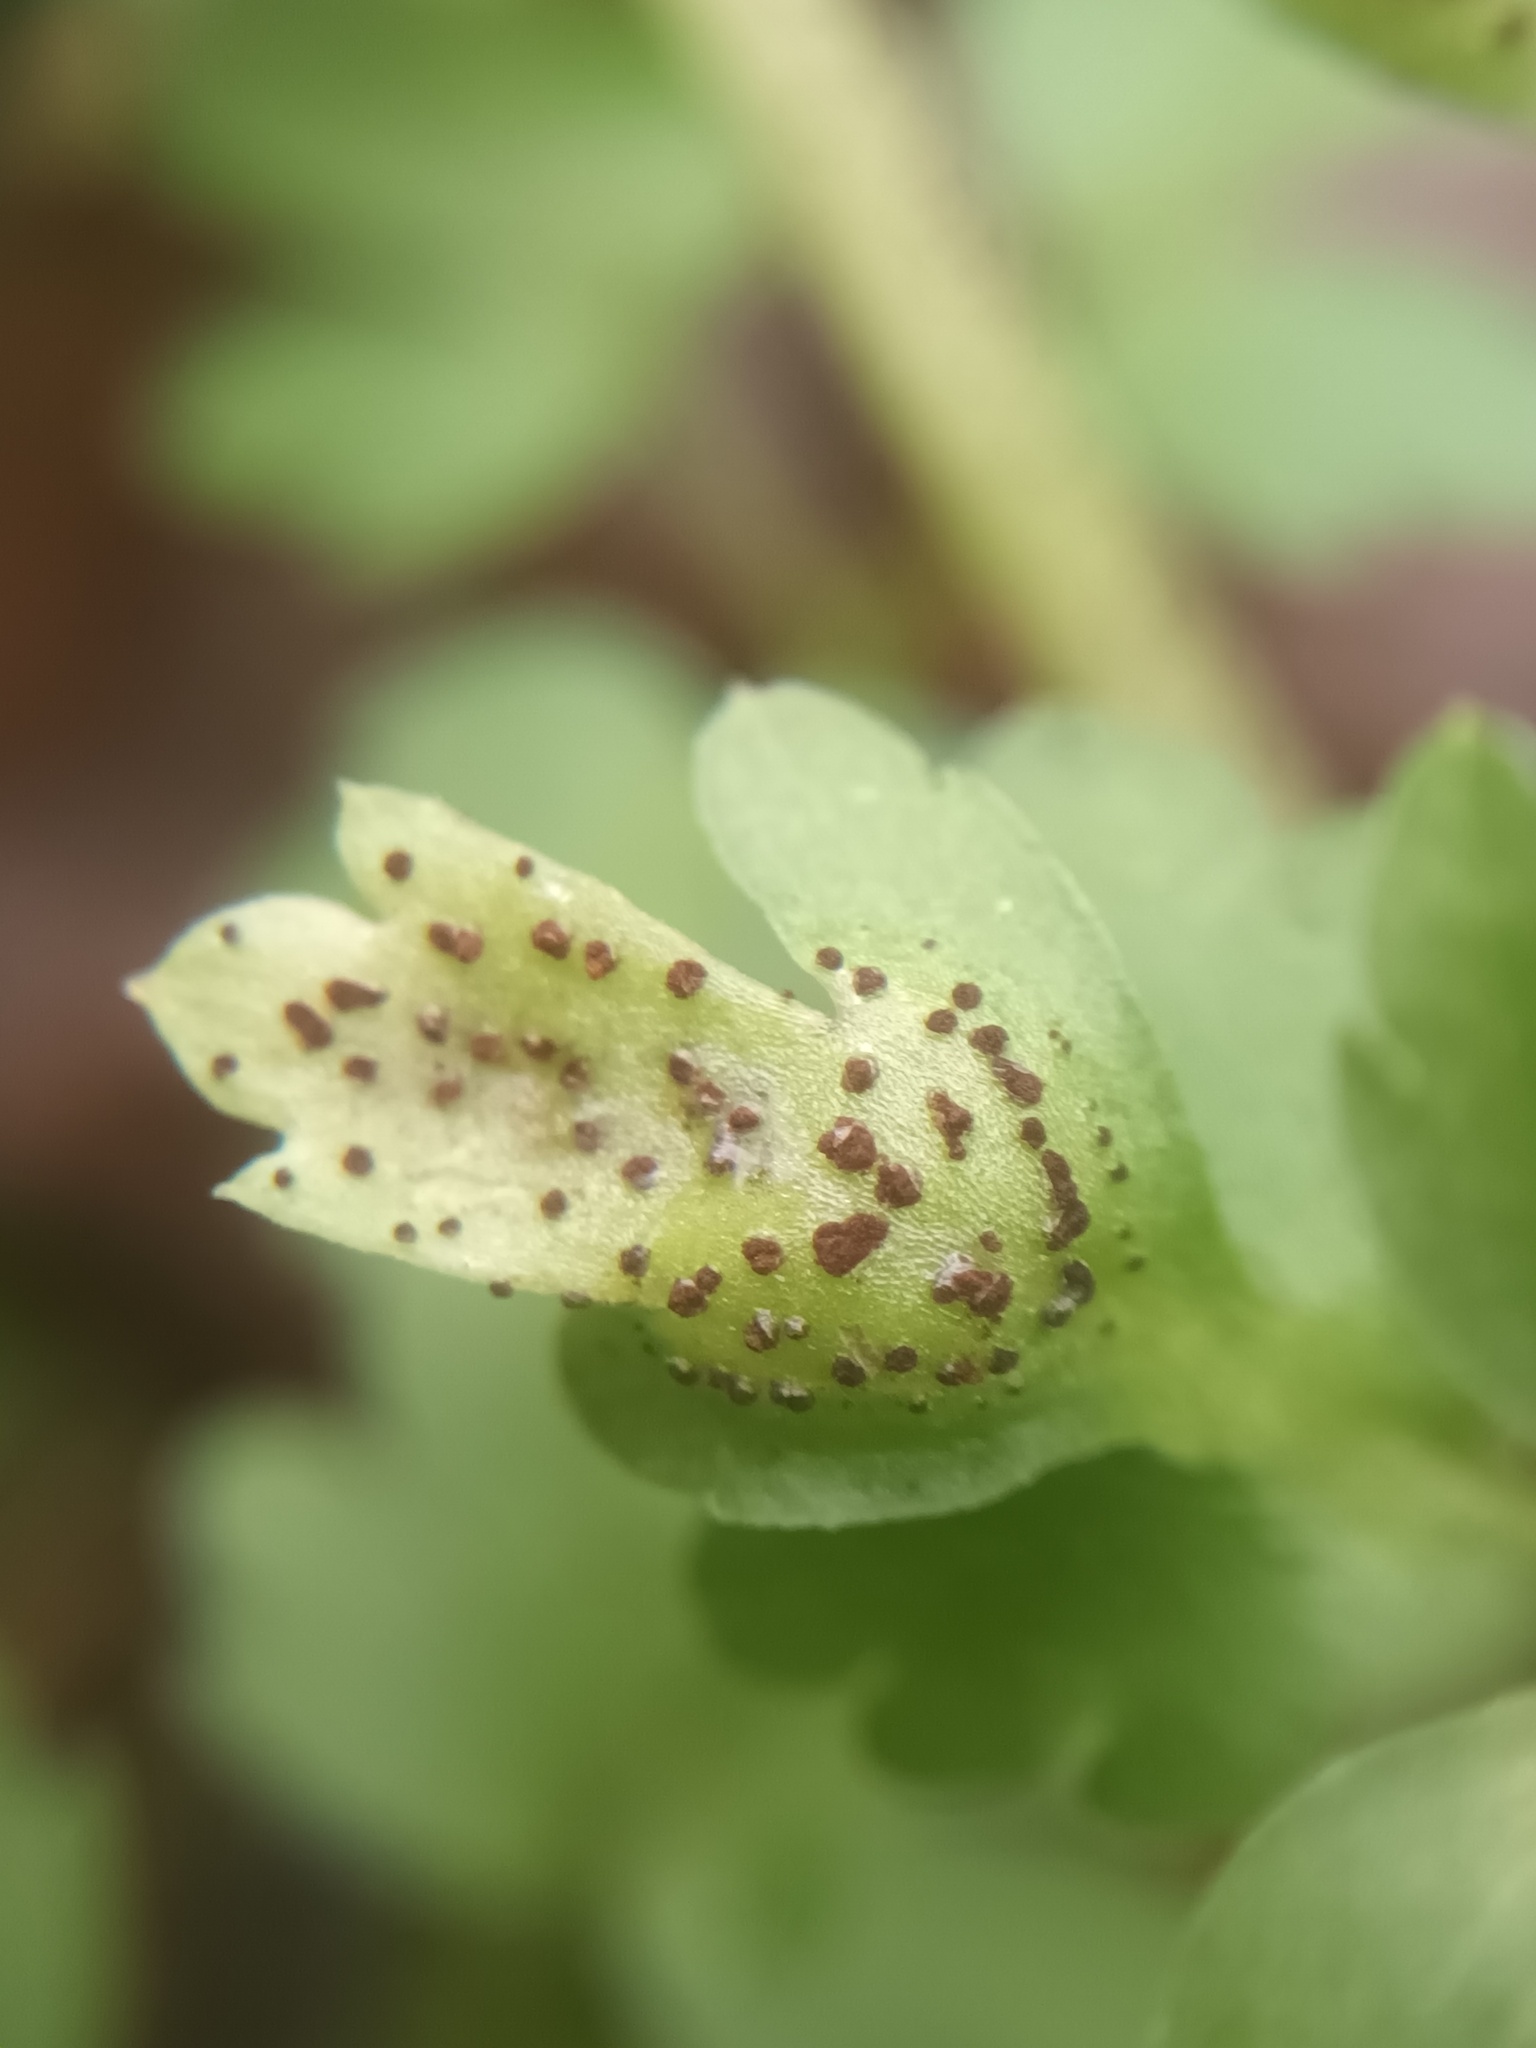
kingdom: Fungi
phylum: Basidiomycota
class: Pucciniomycetes
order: Pucciniales
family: Pucciniaceae
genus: Puccinia
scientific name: Puccinia adoxae
